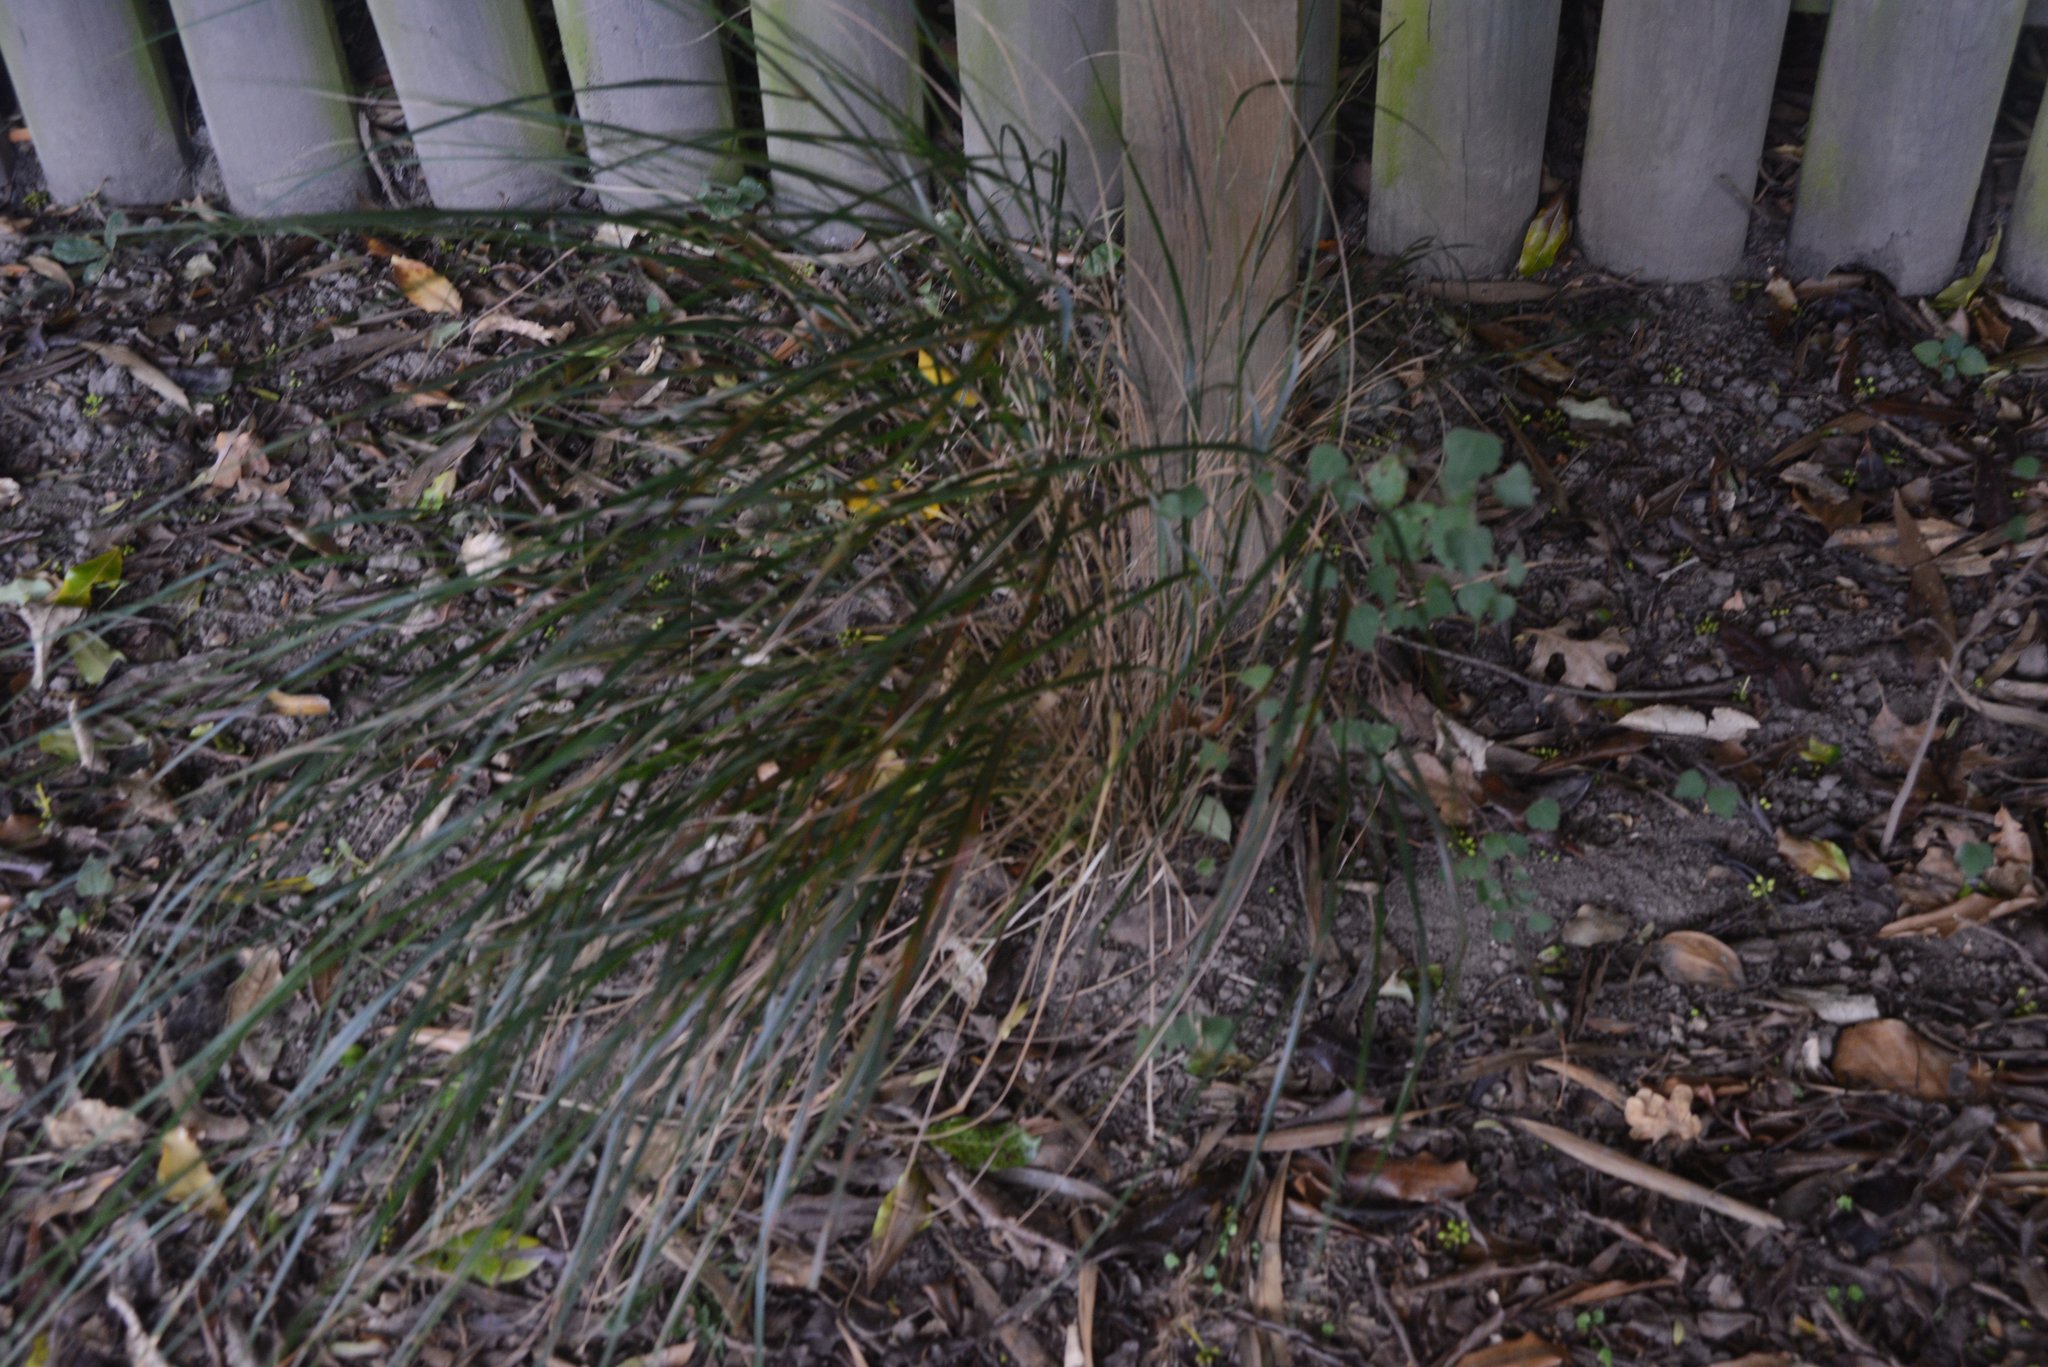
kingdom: Plantae
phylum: Tracheophyta
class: Liliopsida
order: Poales
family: Poaceae
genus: Anemanthele
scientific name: Anemanthele lessoniana
